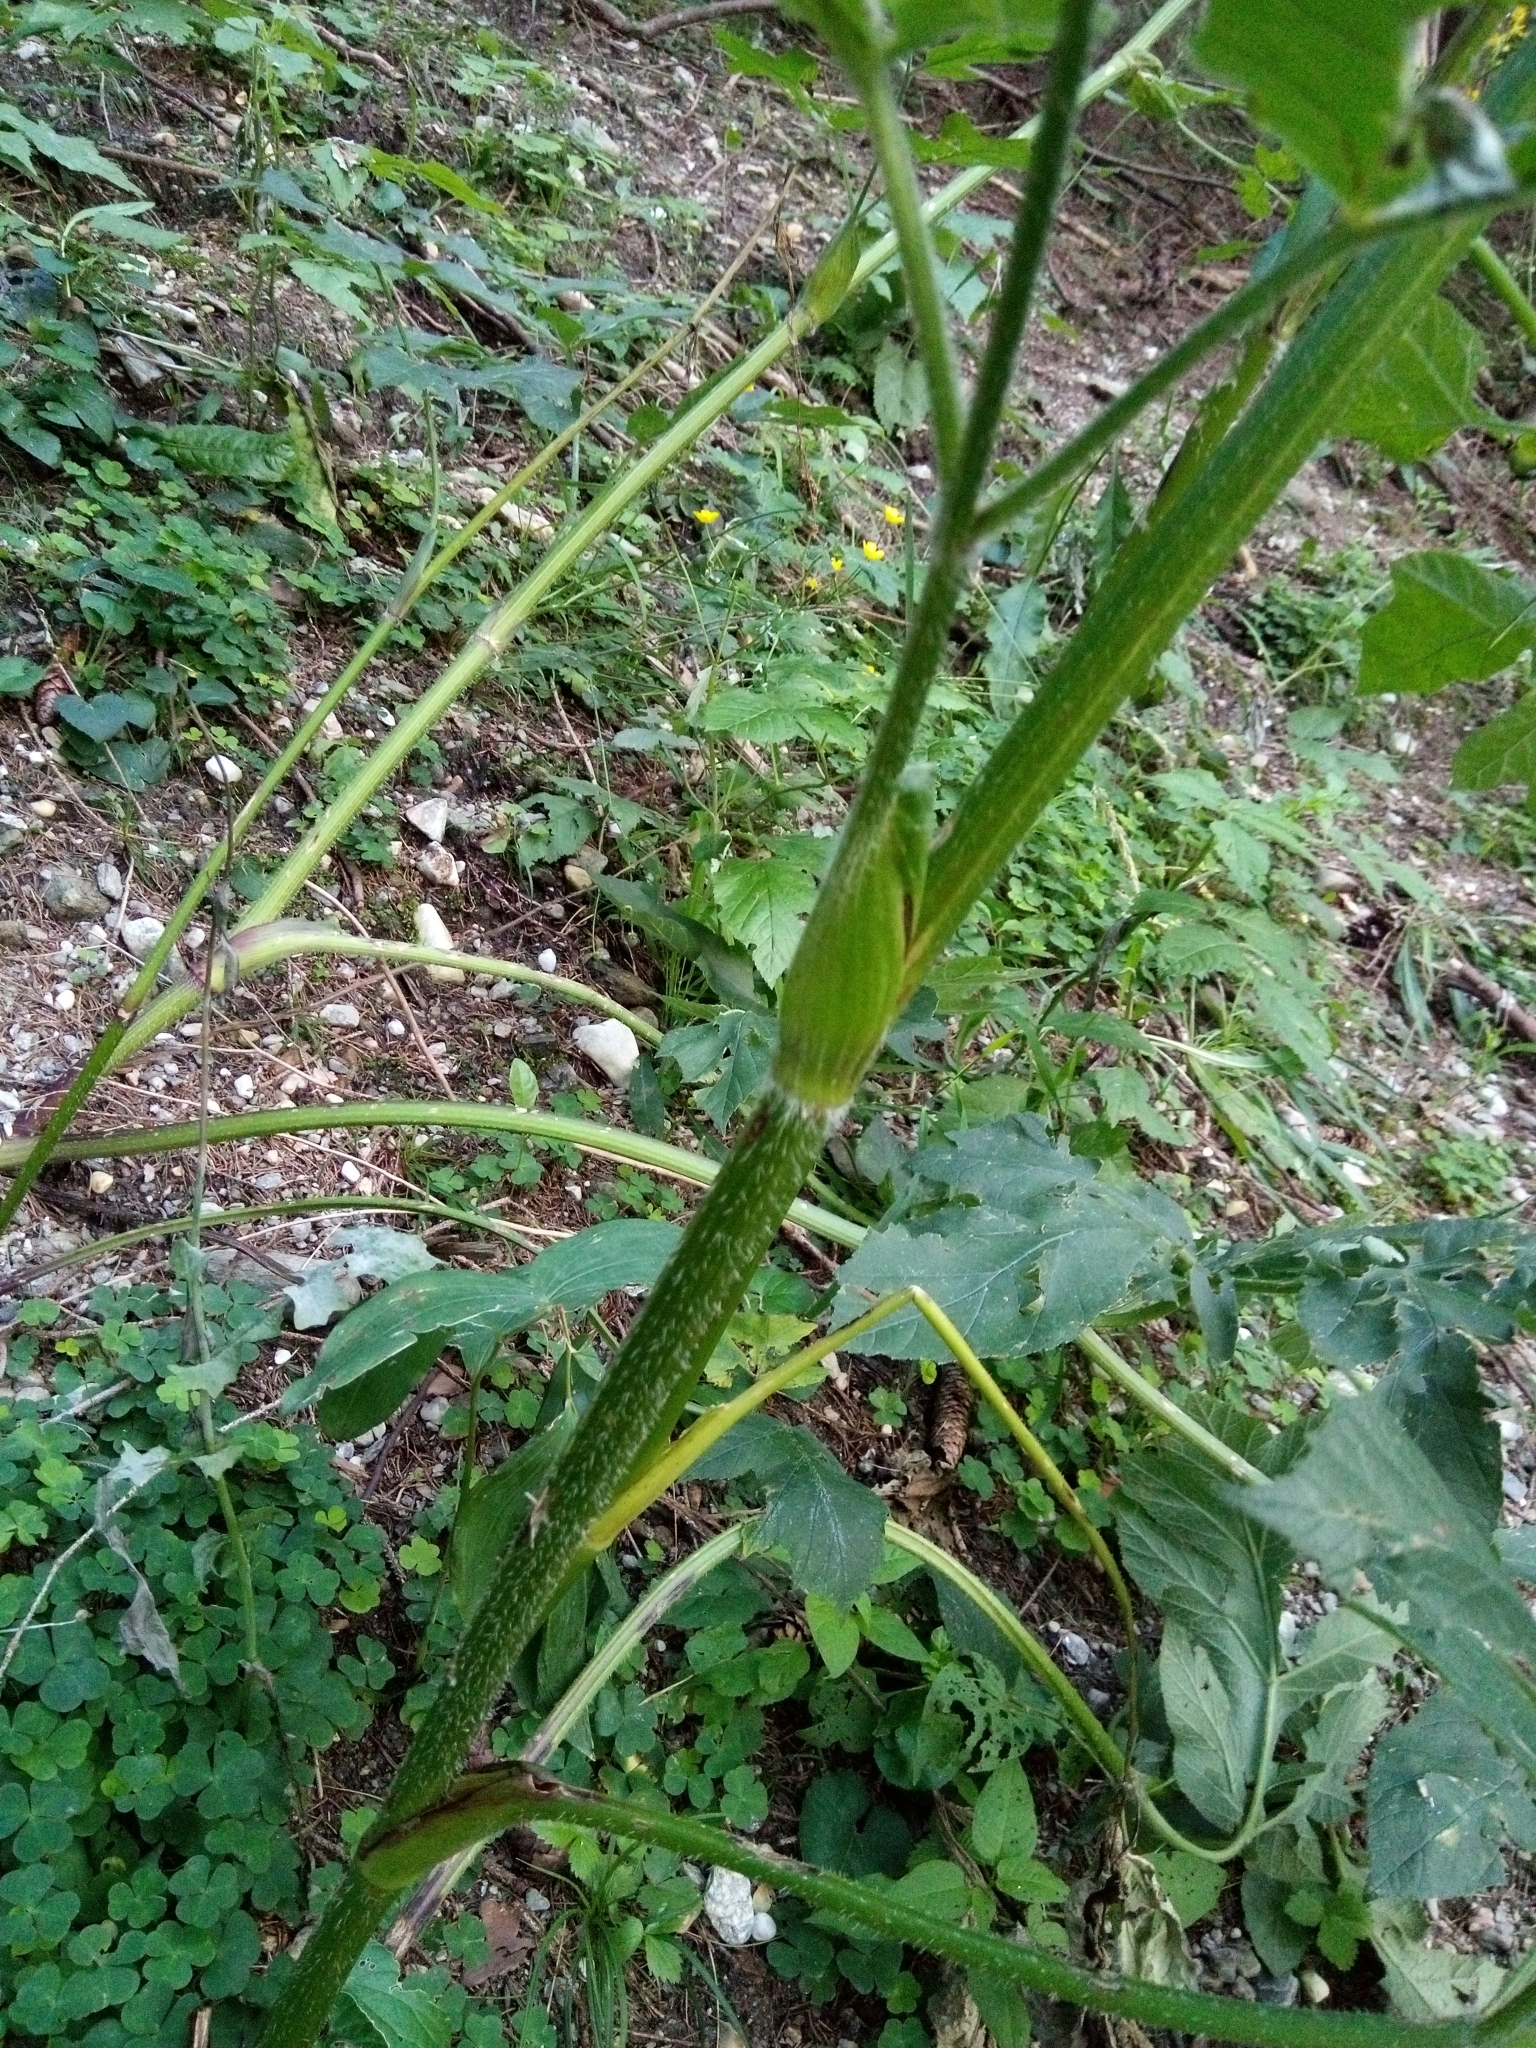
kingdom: Plantae
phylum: Tracheophyta
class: Magnoliopsida
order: Apiales
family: Apiaceae
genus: Heracleum
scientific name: Heracleum sphondylium
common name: Hogweed
